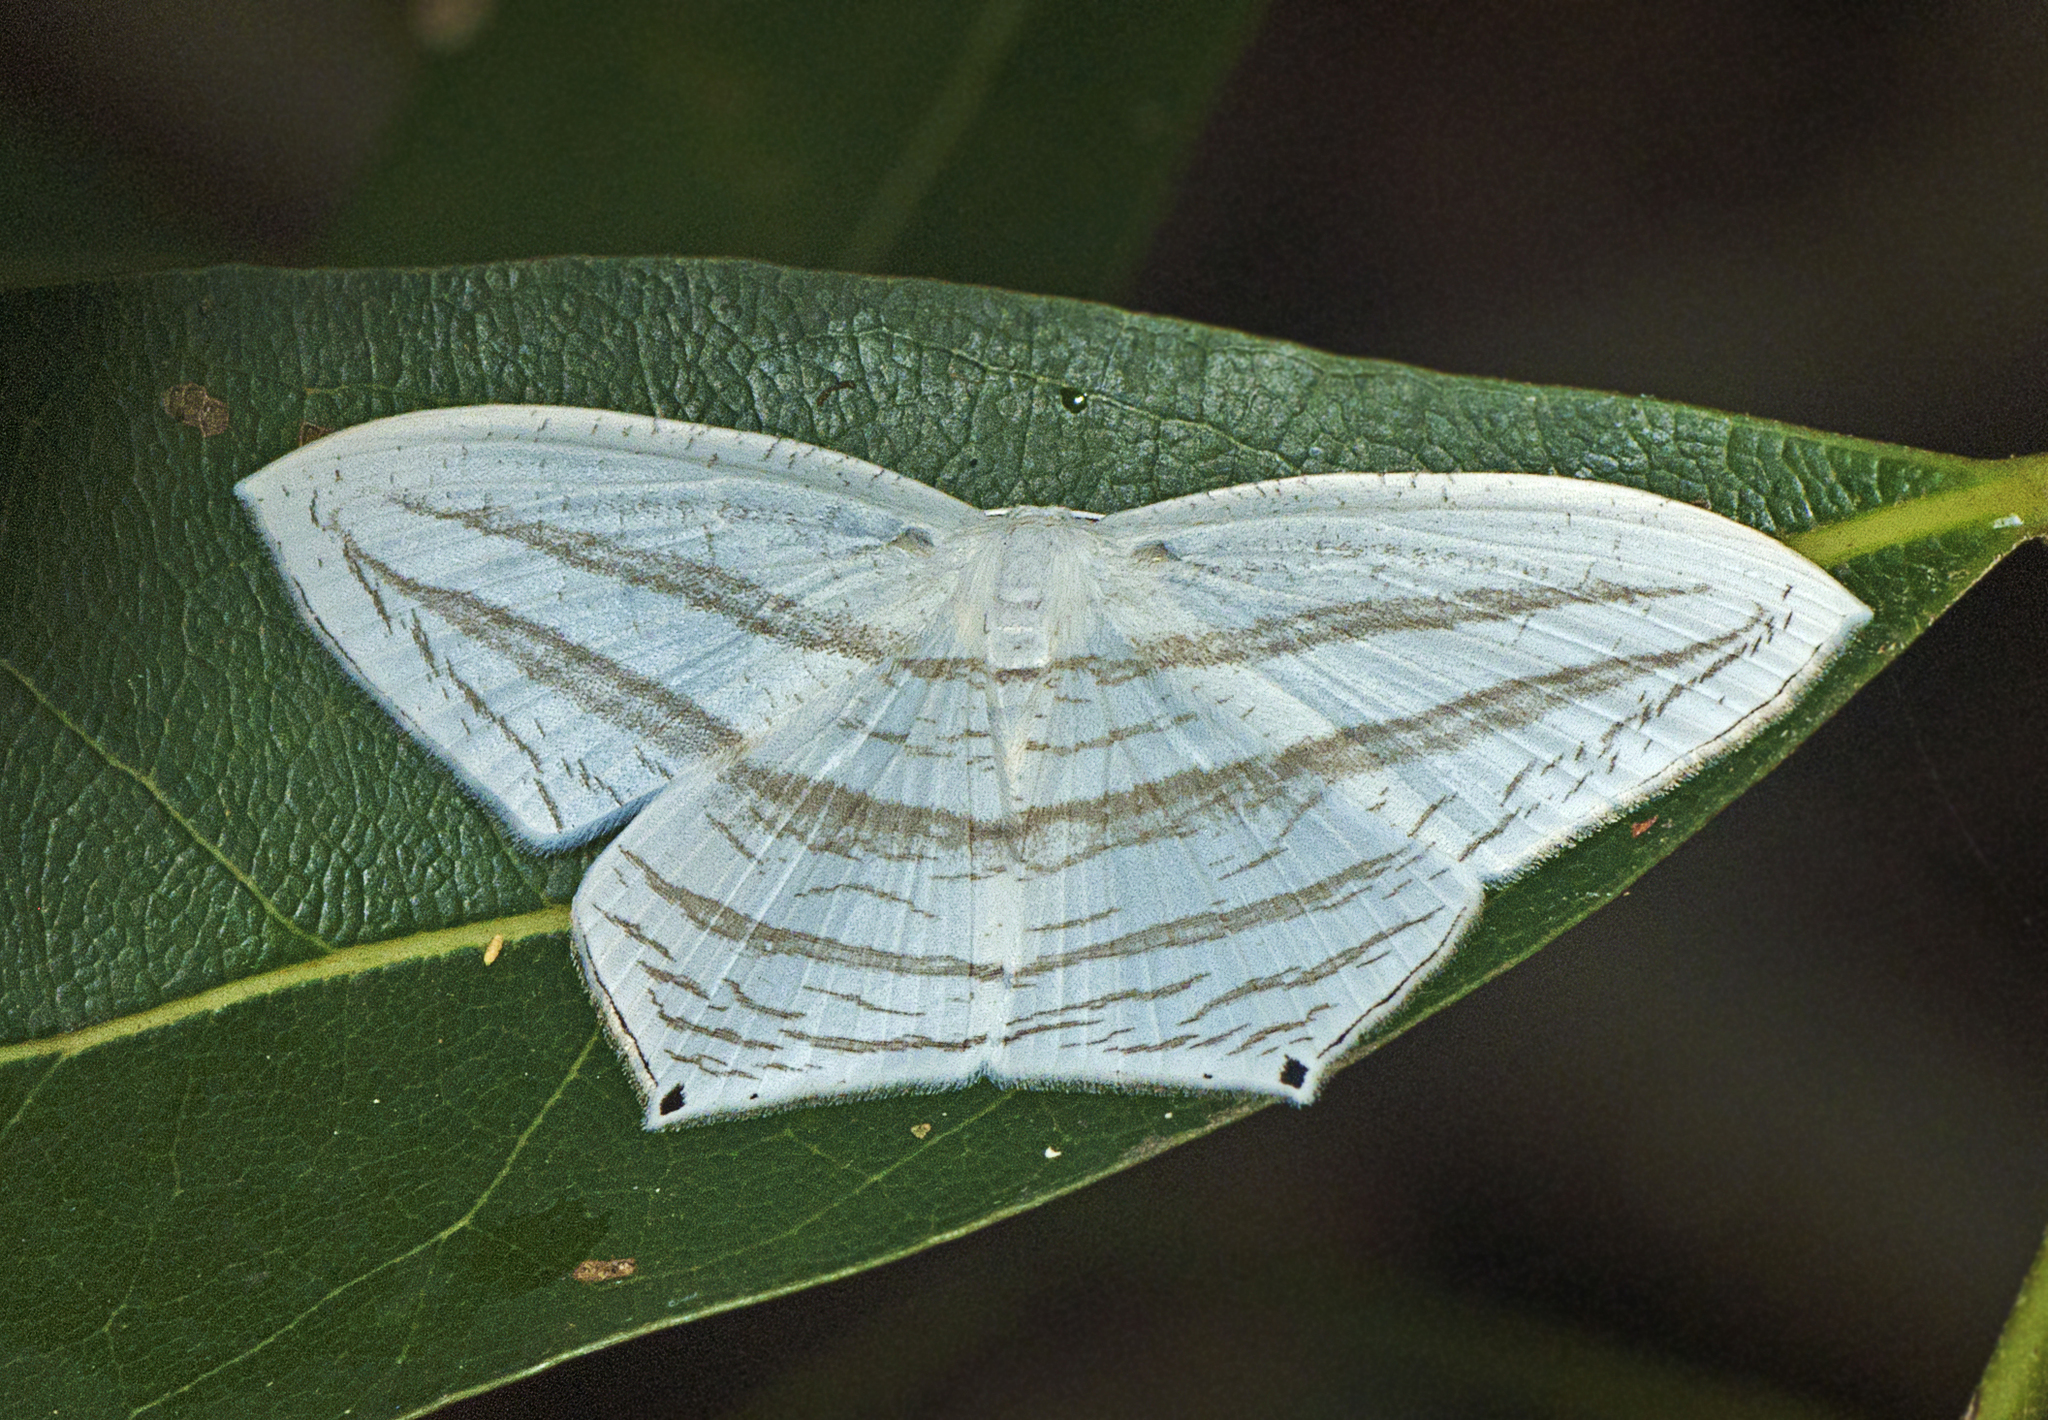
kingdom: Animalia
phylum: Arthropoda
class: Insecta
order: Lepidoptera
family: Uraniidae
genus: Acropteris
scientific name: Acropteris teriadata
